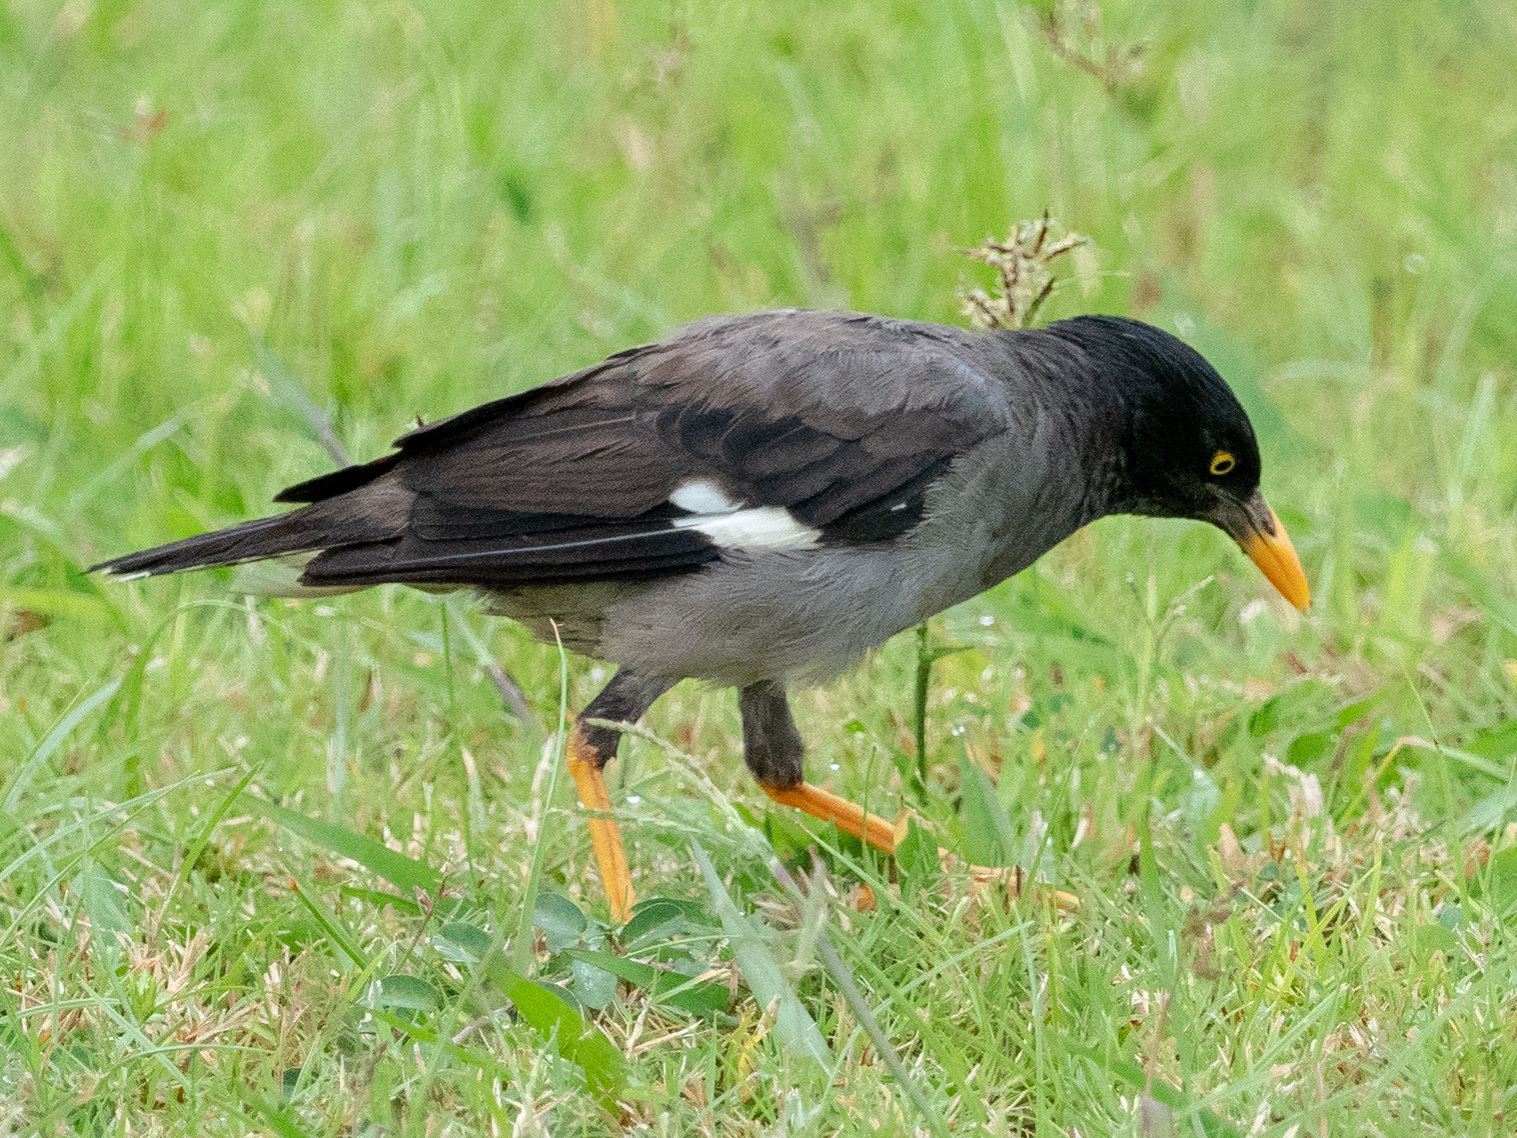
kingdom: Animalia
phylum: Chordata
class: Aves
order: Passeriformes
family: Sturnidae
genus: Acridotheres
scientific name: Acridotheres fuscus
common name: Jungle myna
